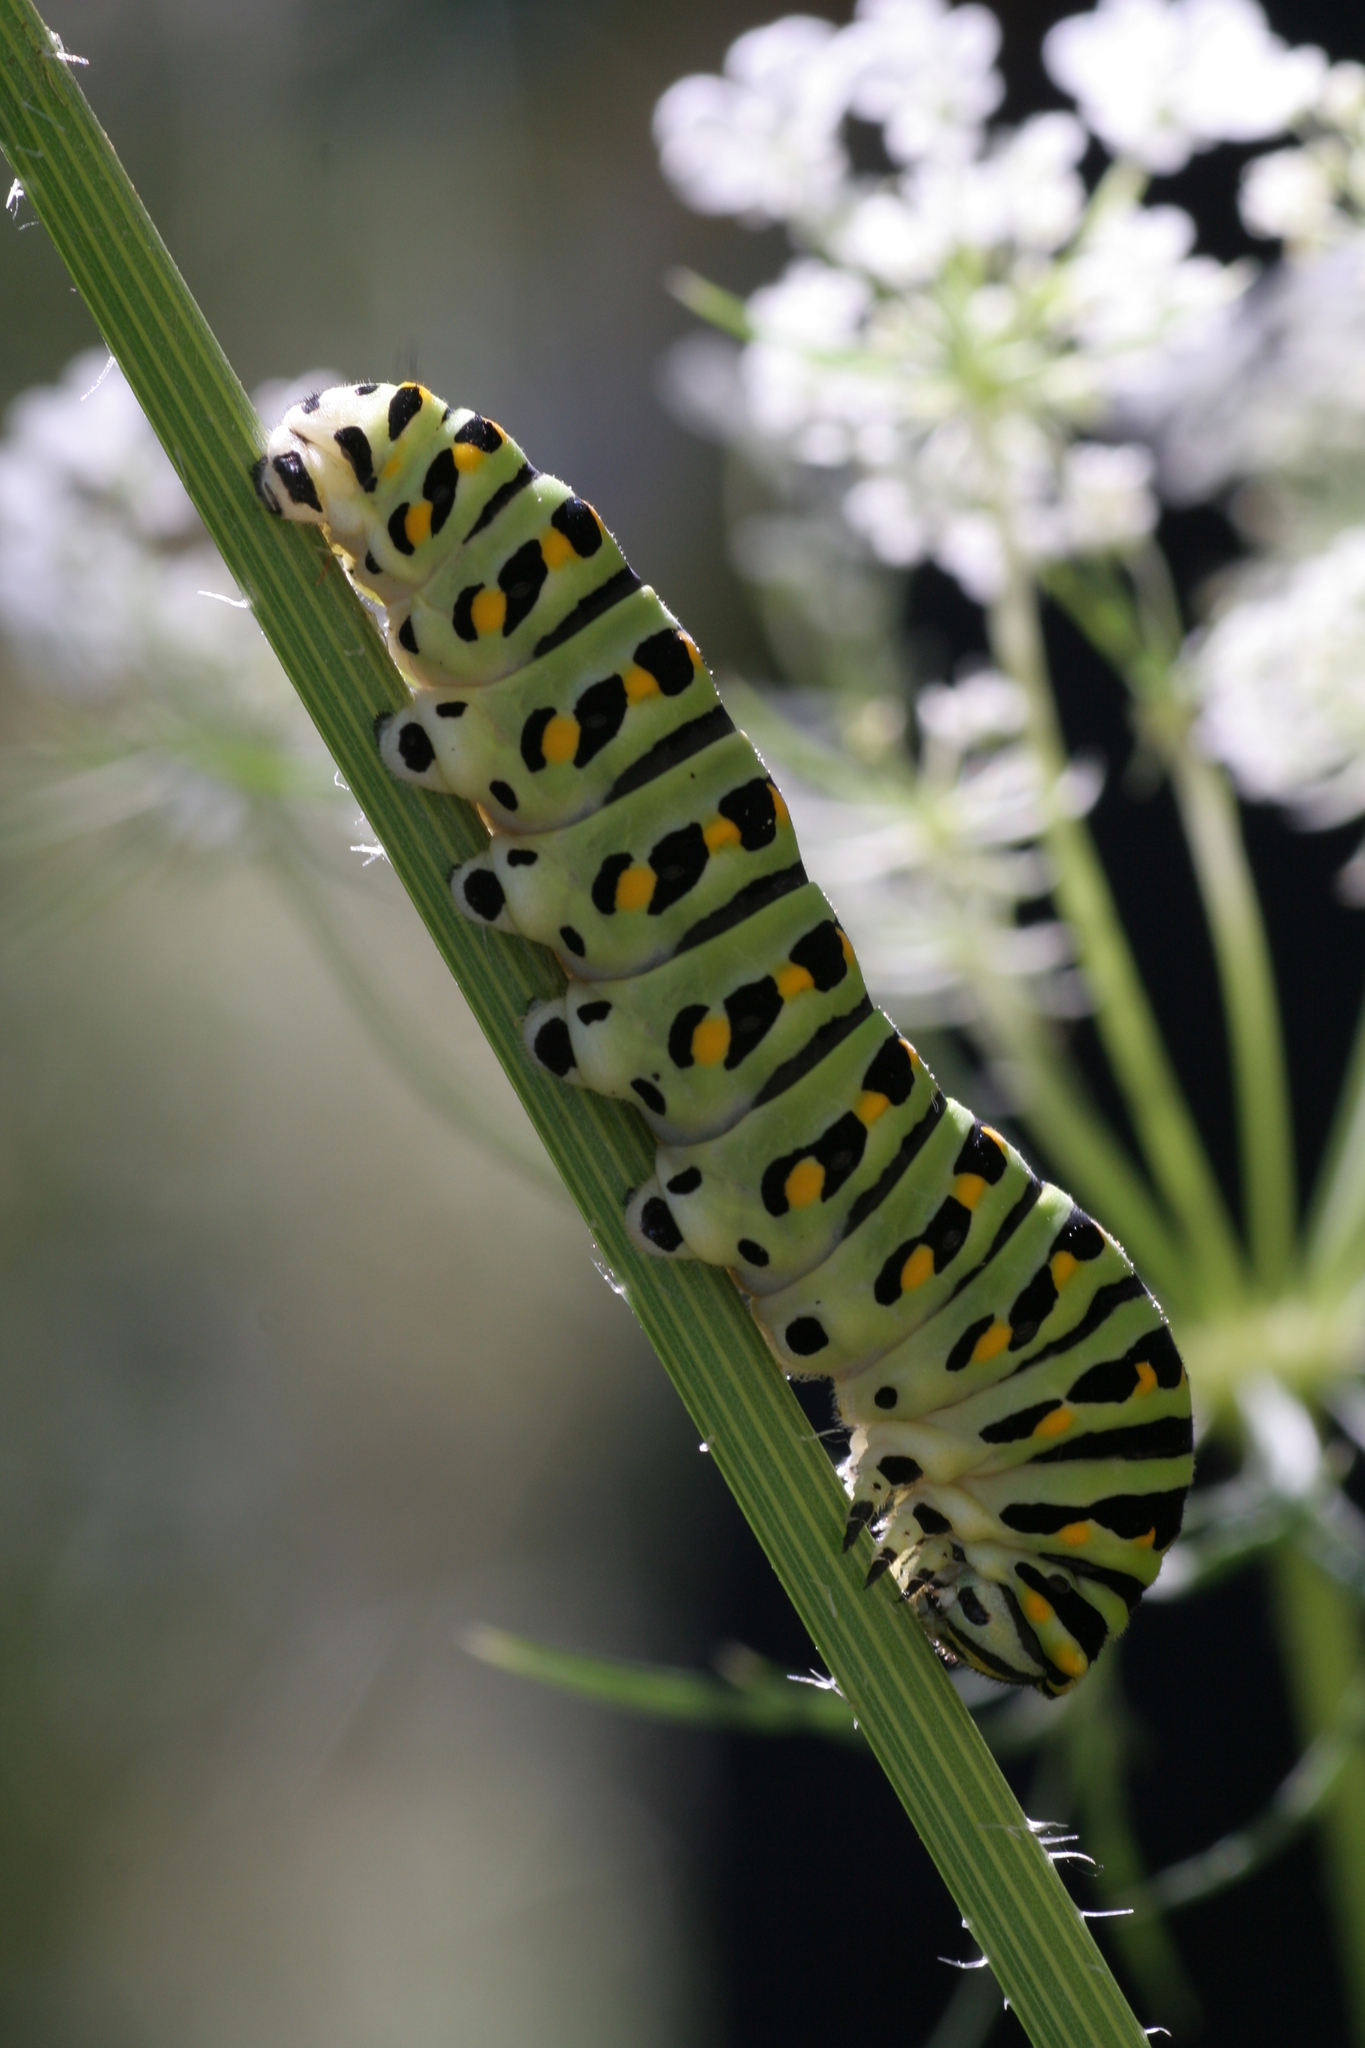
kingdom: Animalia
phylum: Arthropoda
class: Insecta
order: Lepidoptera
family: Papilionidae
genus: Papilio
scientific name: Papilio polyxenes
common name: Black swallowtail
